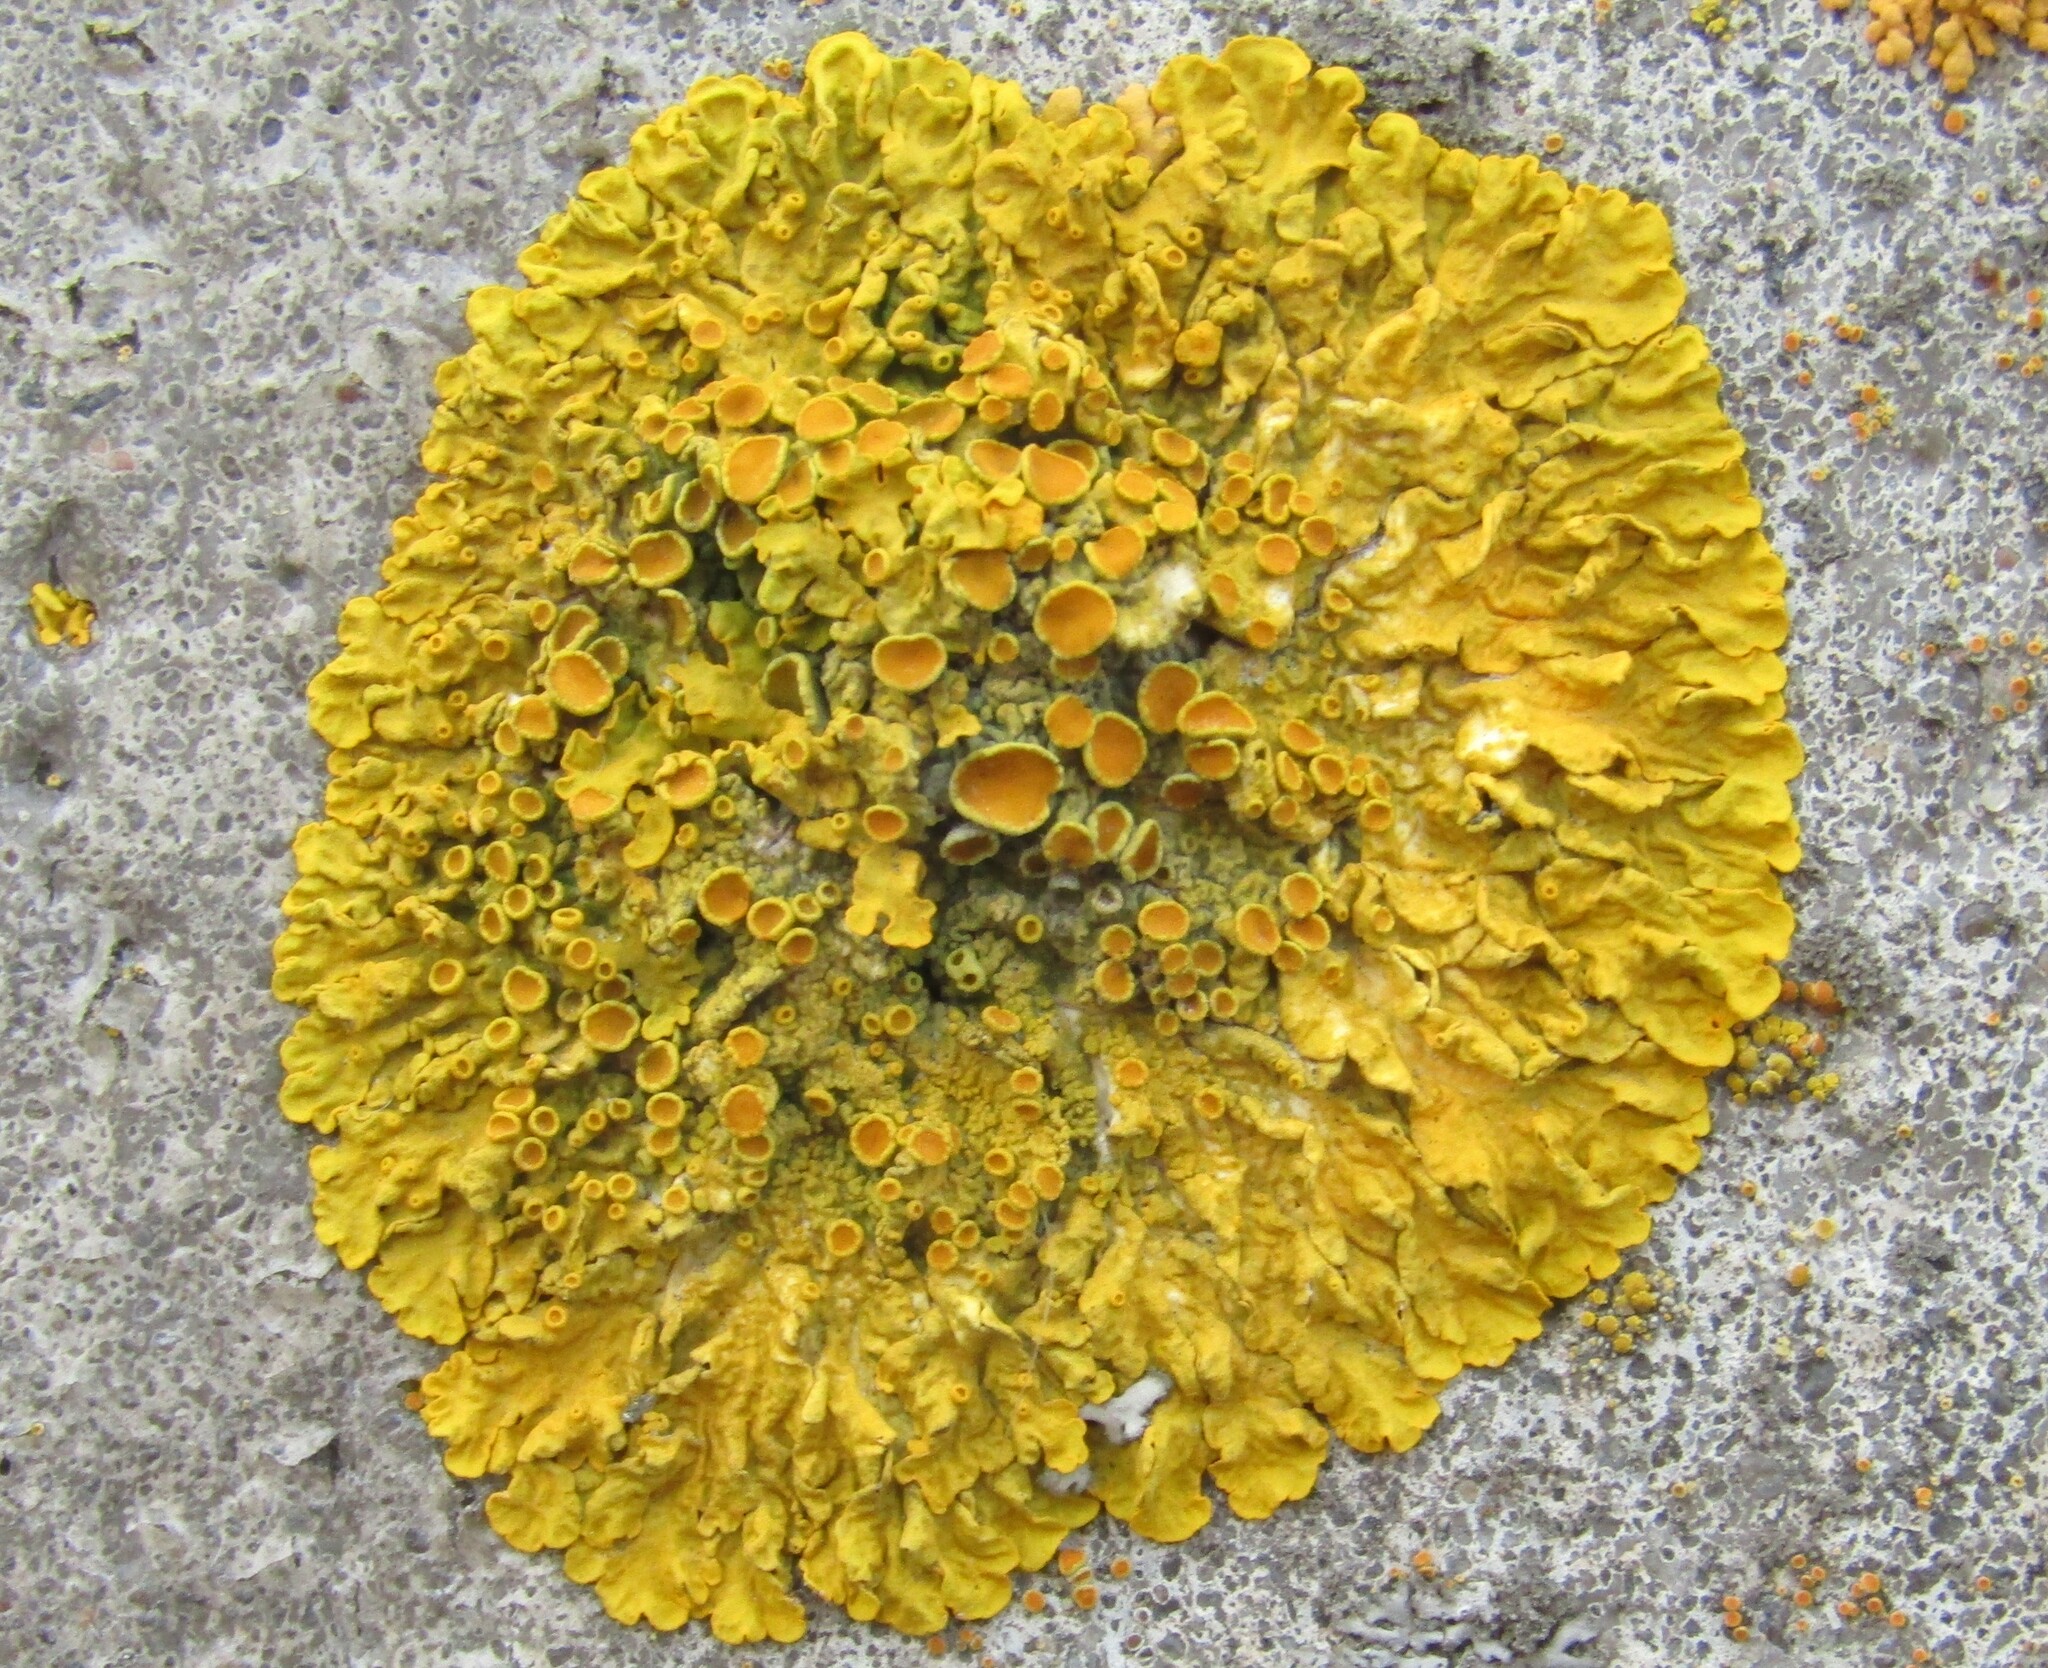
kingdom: Fungi
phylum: Ascomycota
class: Lecanoromycetes
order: Teloschistales
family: Teloschistaceae
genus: Xanthoria
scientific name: Xanthoria parietina
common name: Common orange lichen
